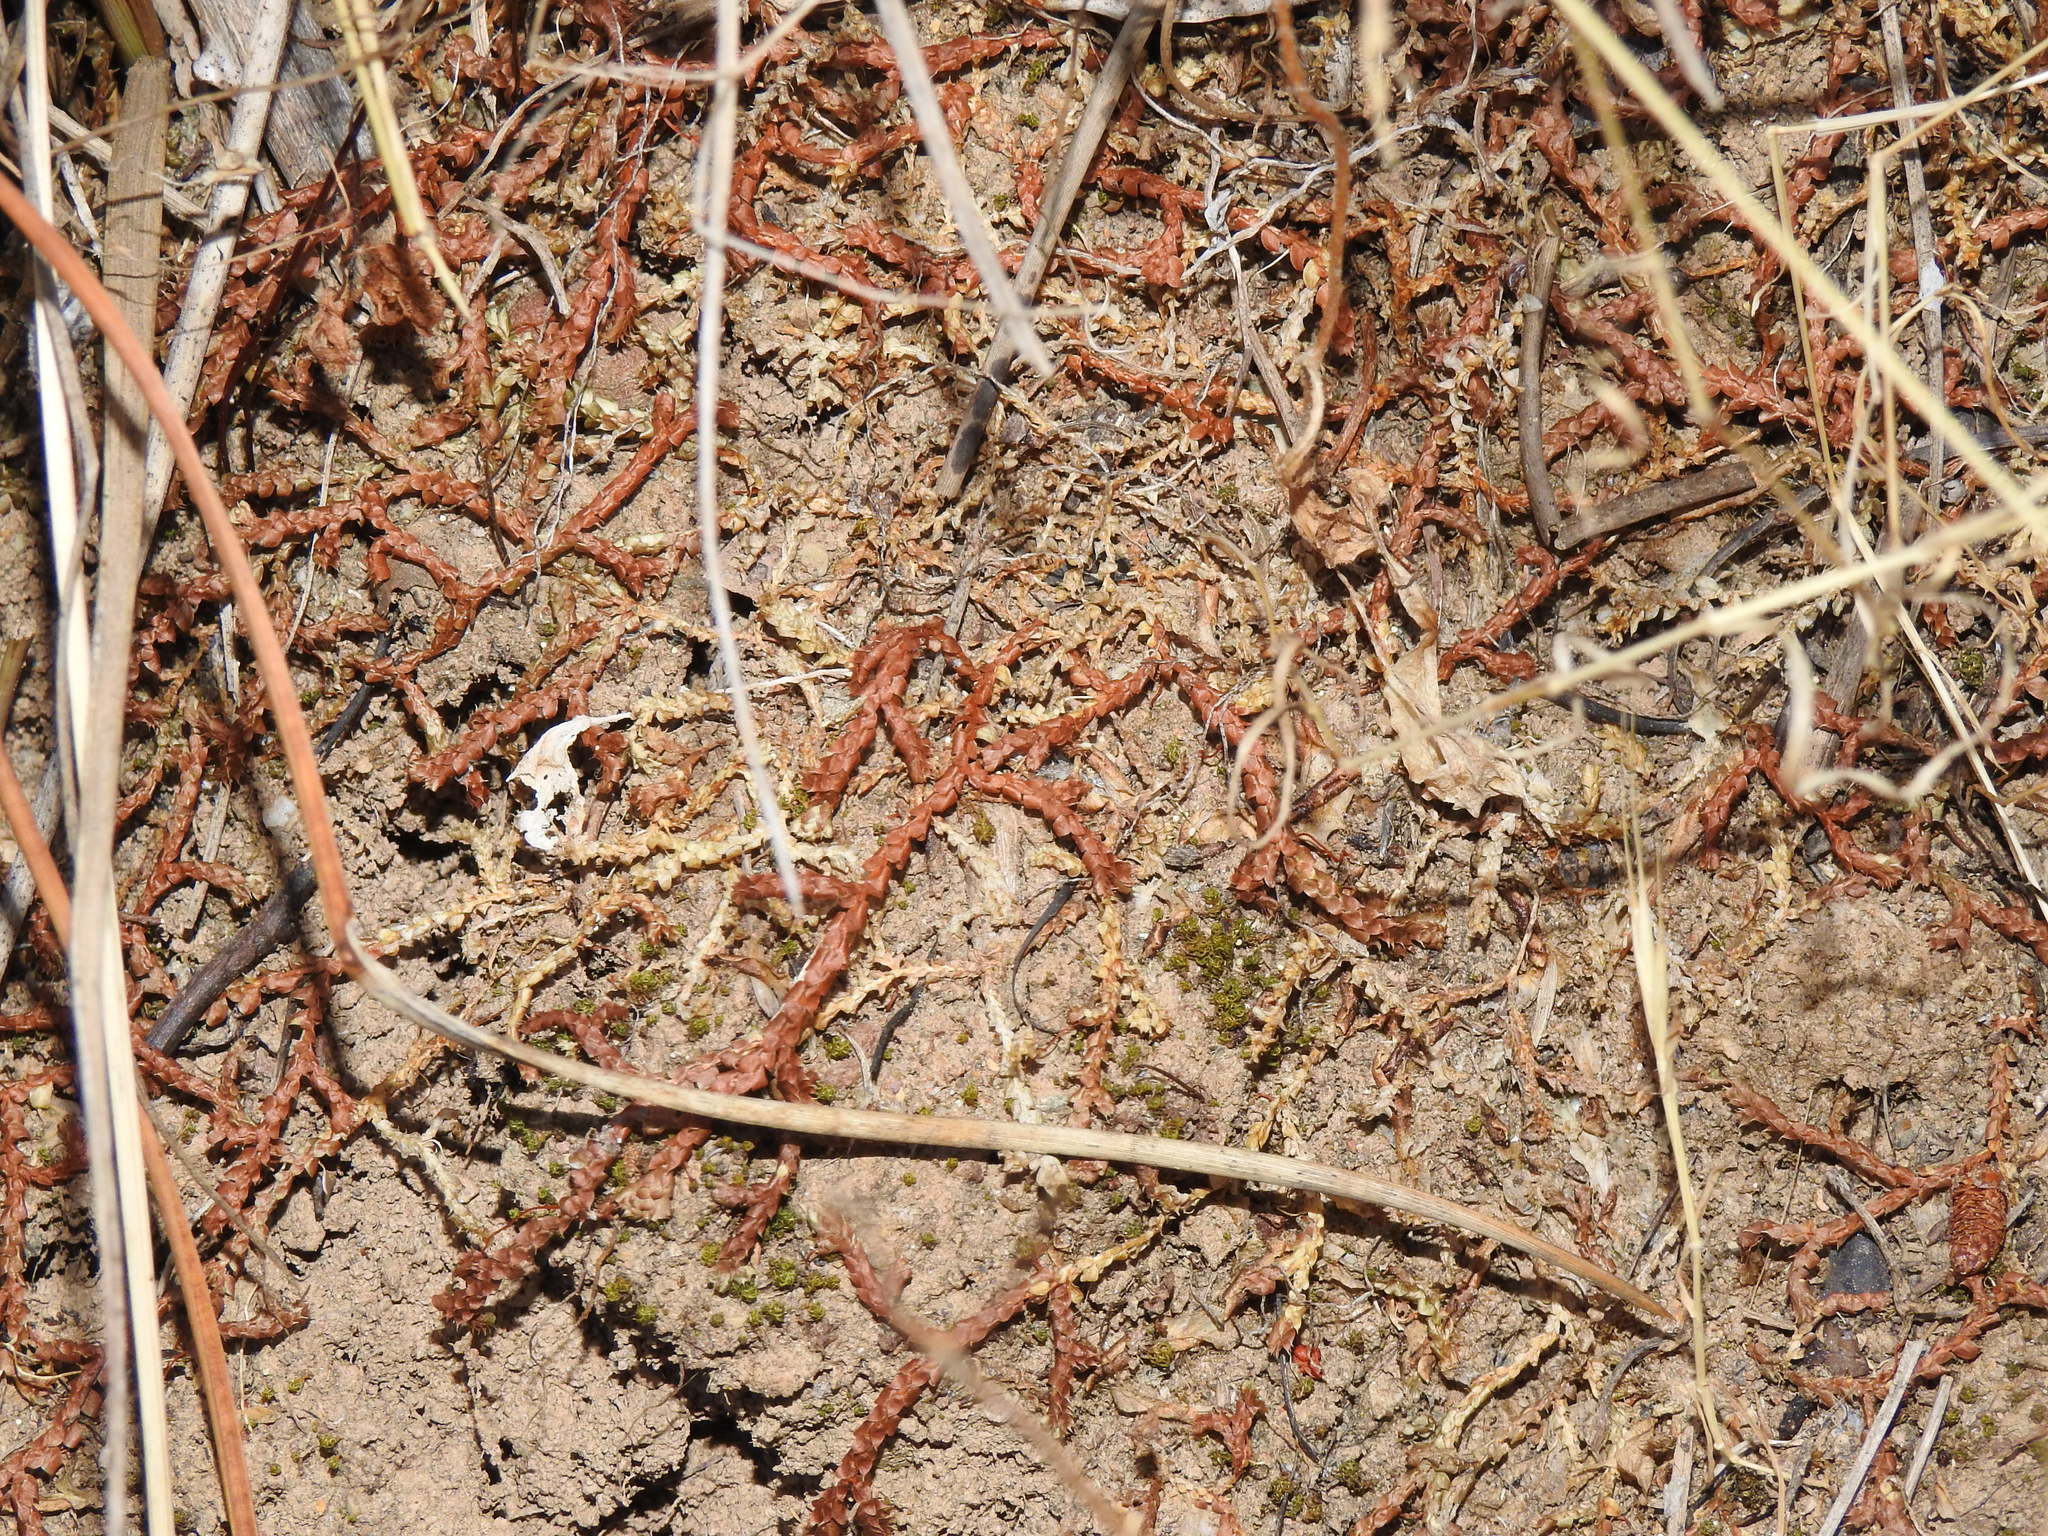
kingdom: Plantae
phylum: Tracheophyta
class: Lycopodiopsida
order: Selaginellales
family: Selaginellaceae
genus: Selaginella
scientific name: Selaginella denticulata
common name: Toothed-leaved clubmoss
